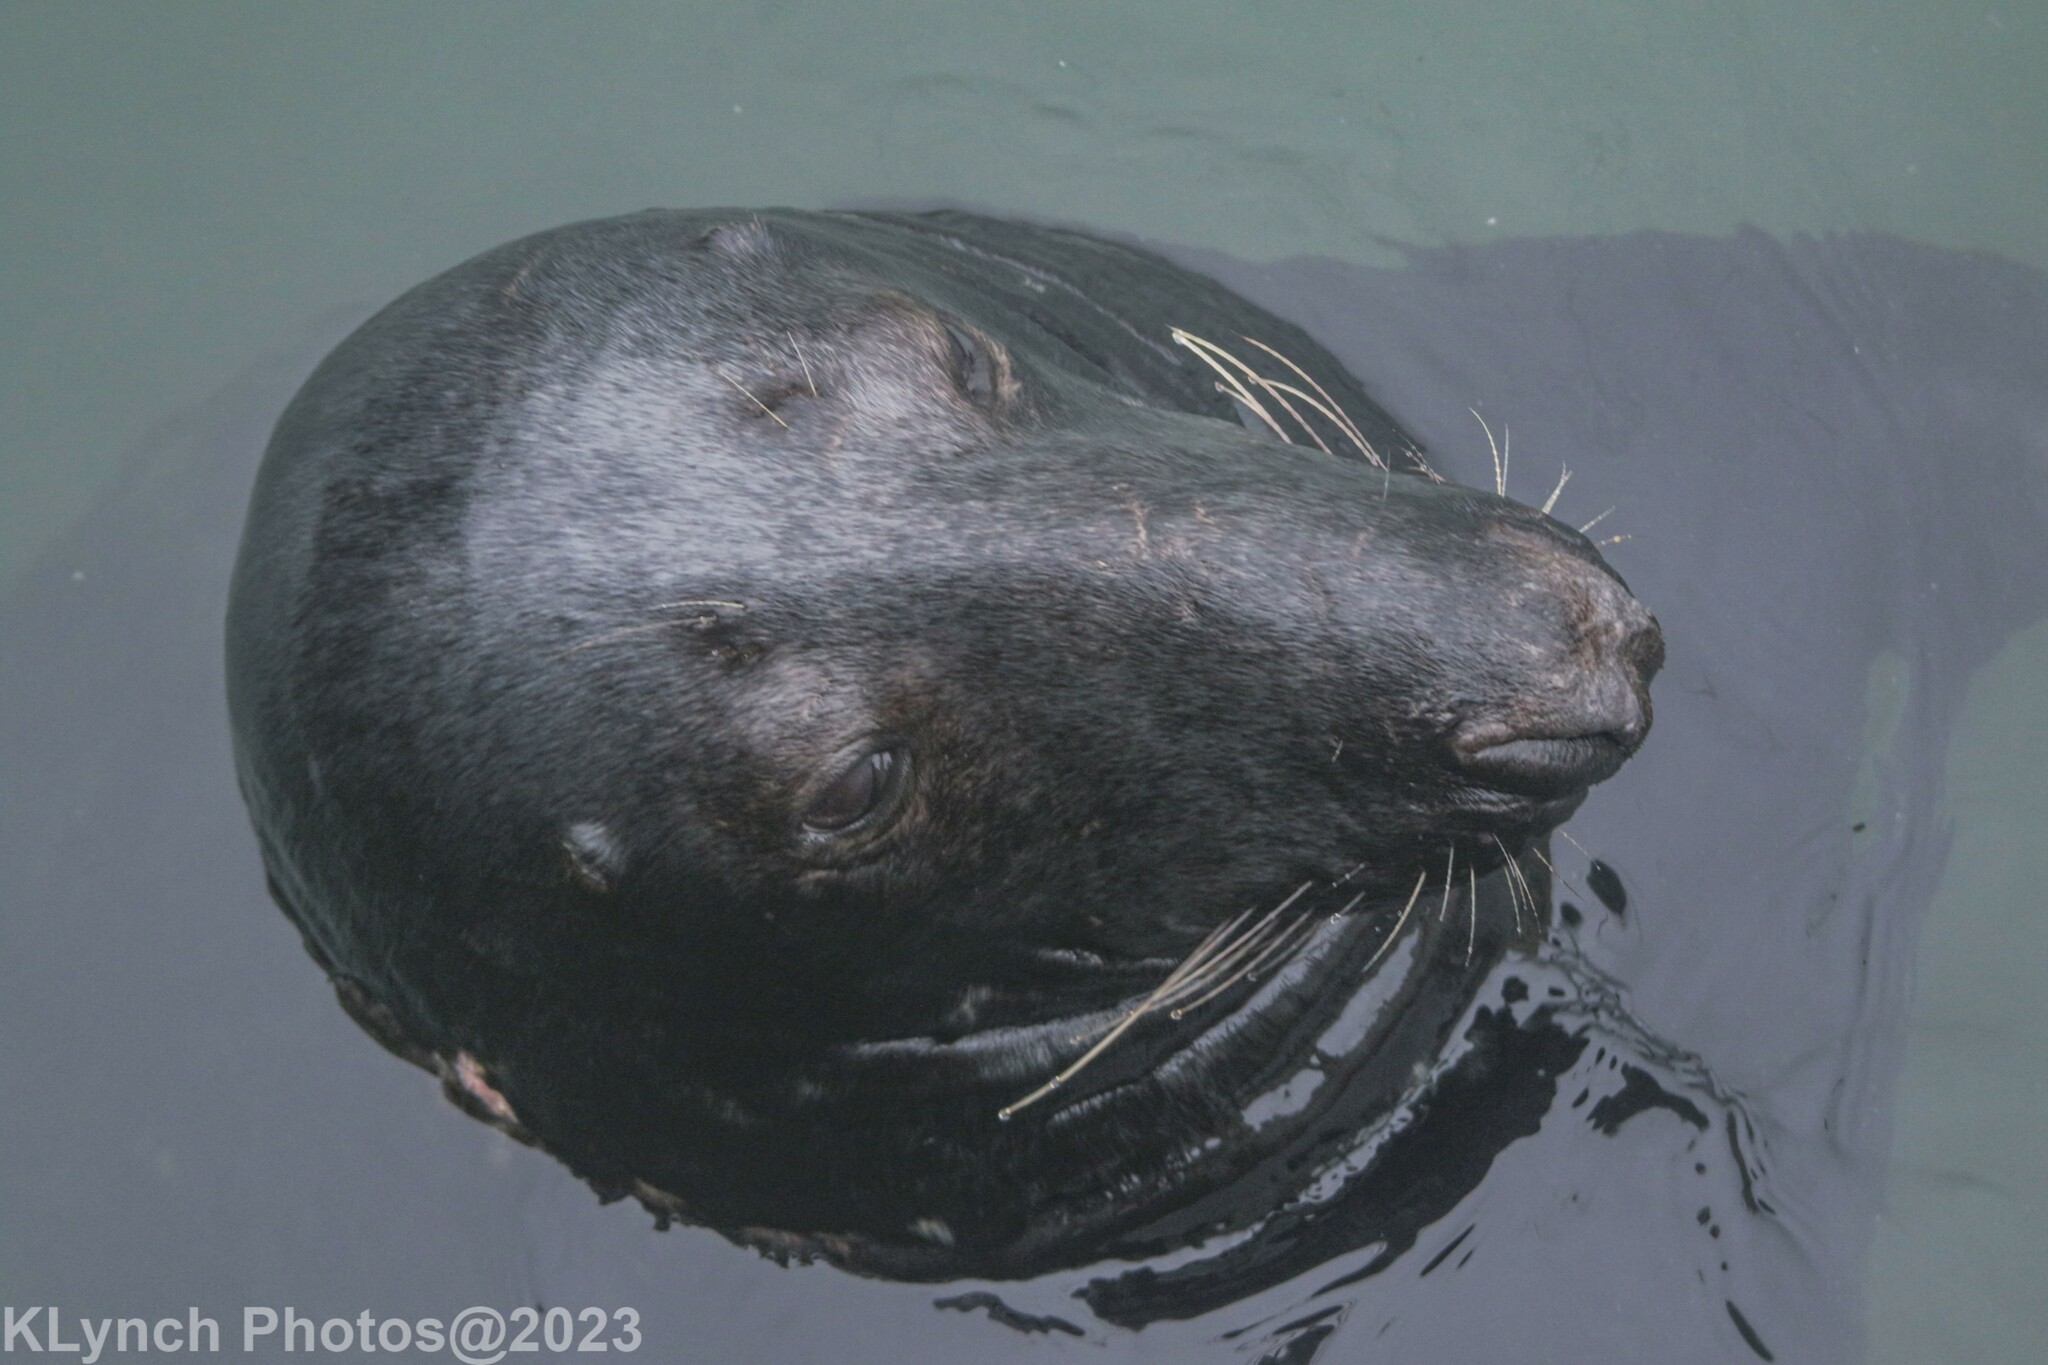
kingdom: Animalia
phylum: Chordata
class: Mammalia
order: Carnivora
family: Phocidae
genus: Halichoerus
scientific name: Halichoerus grypus
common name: Grey seal
